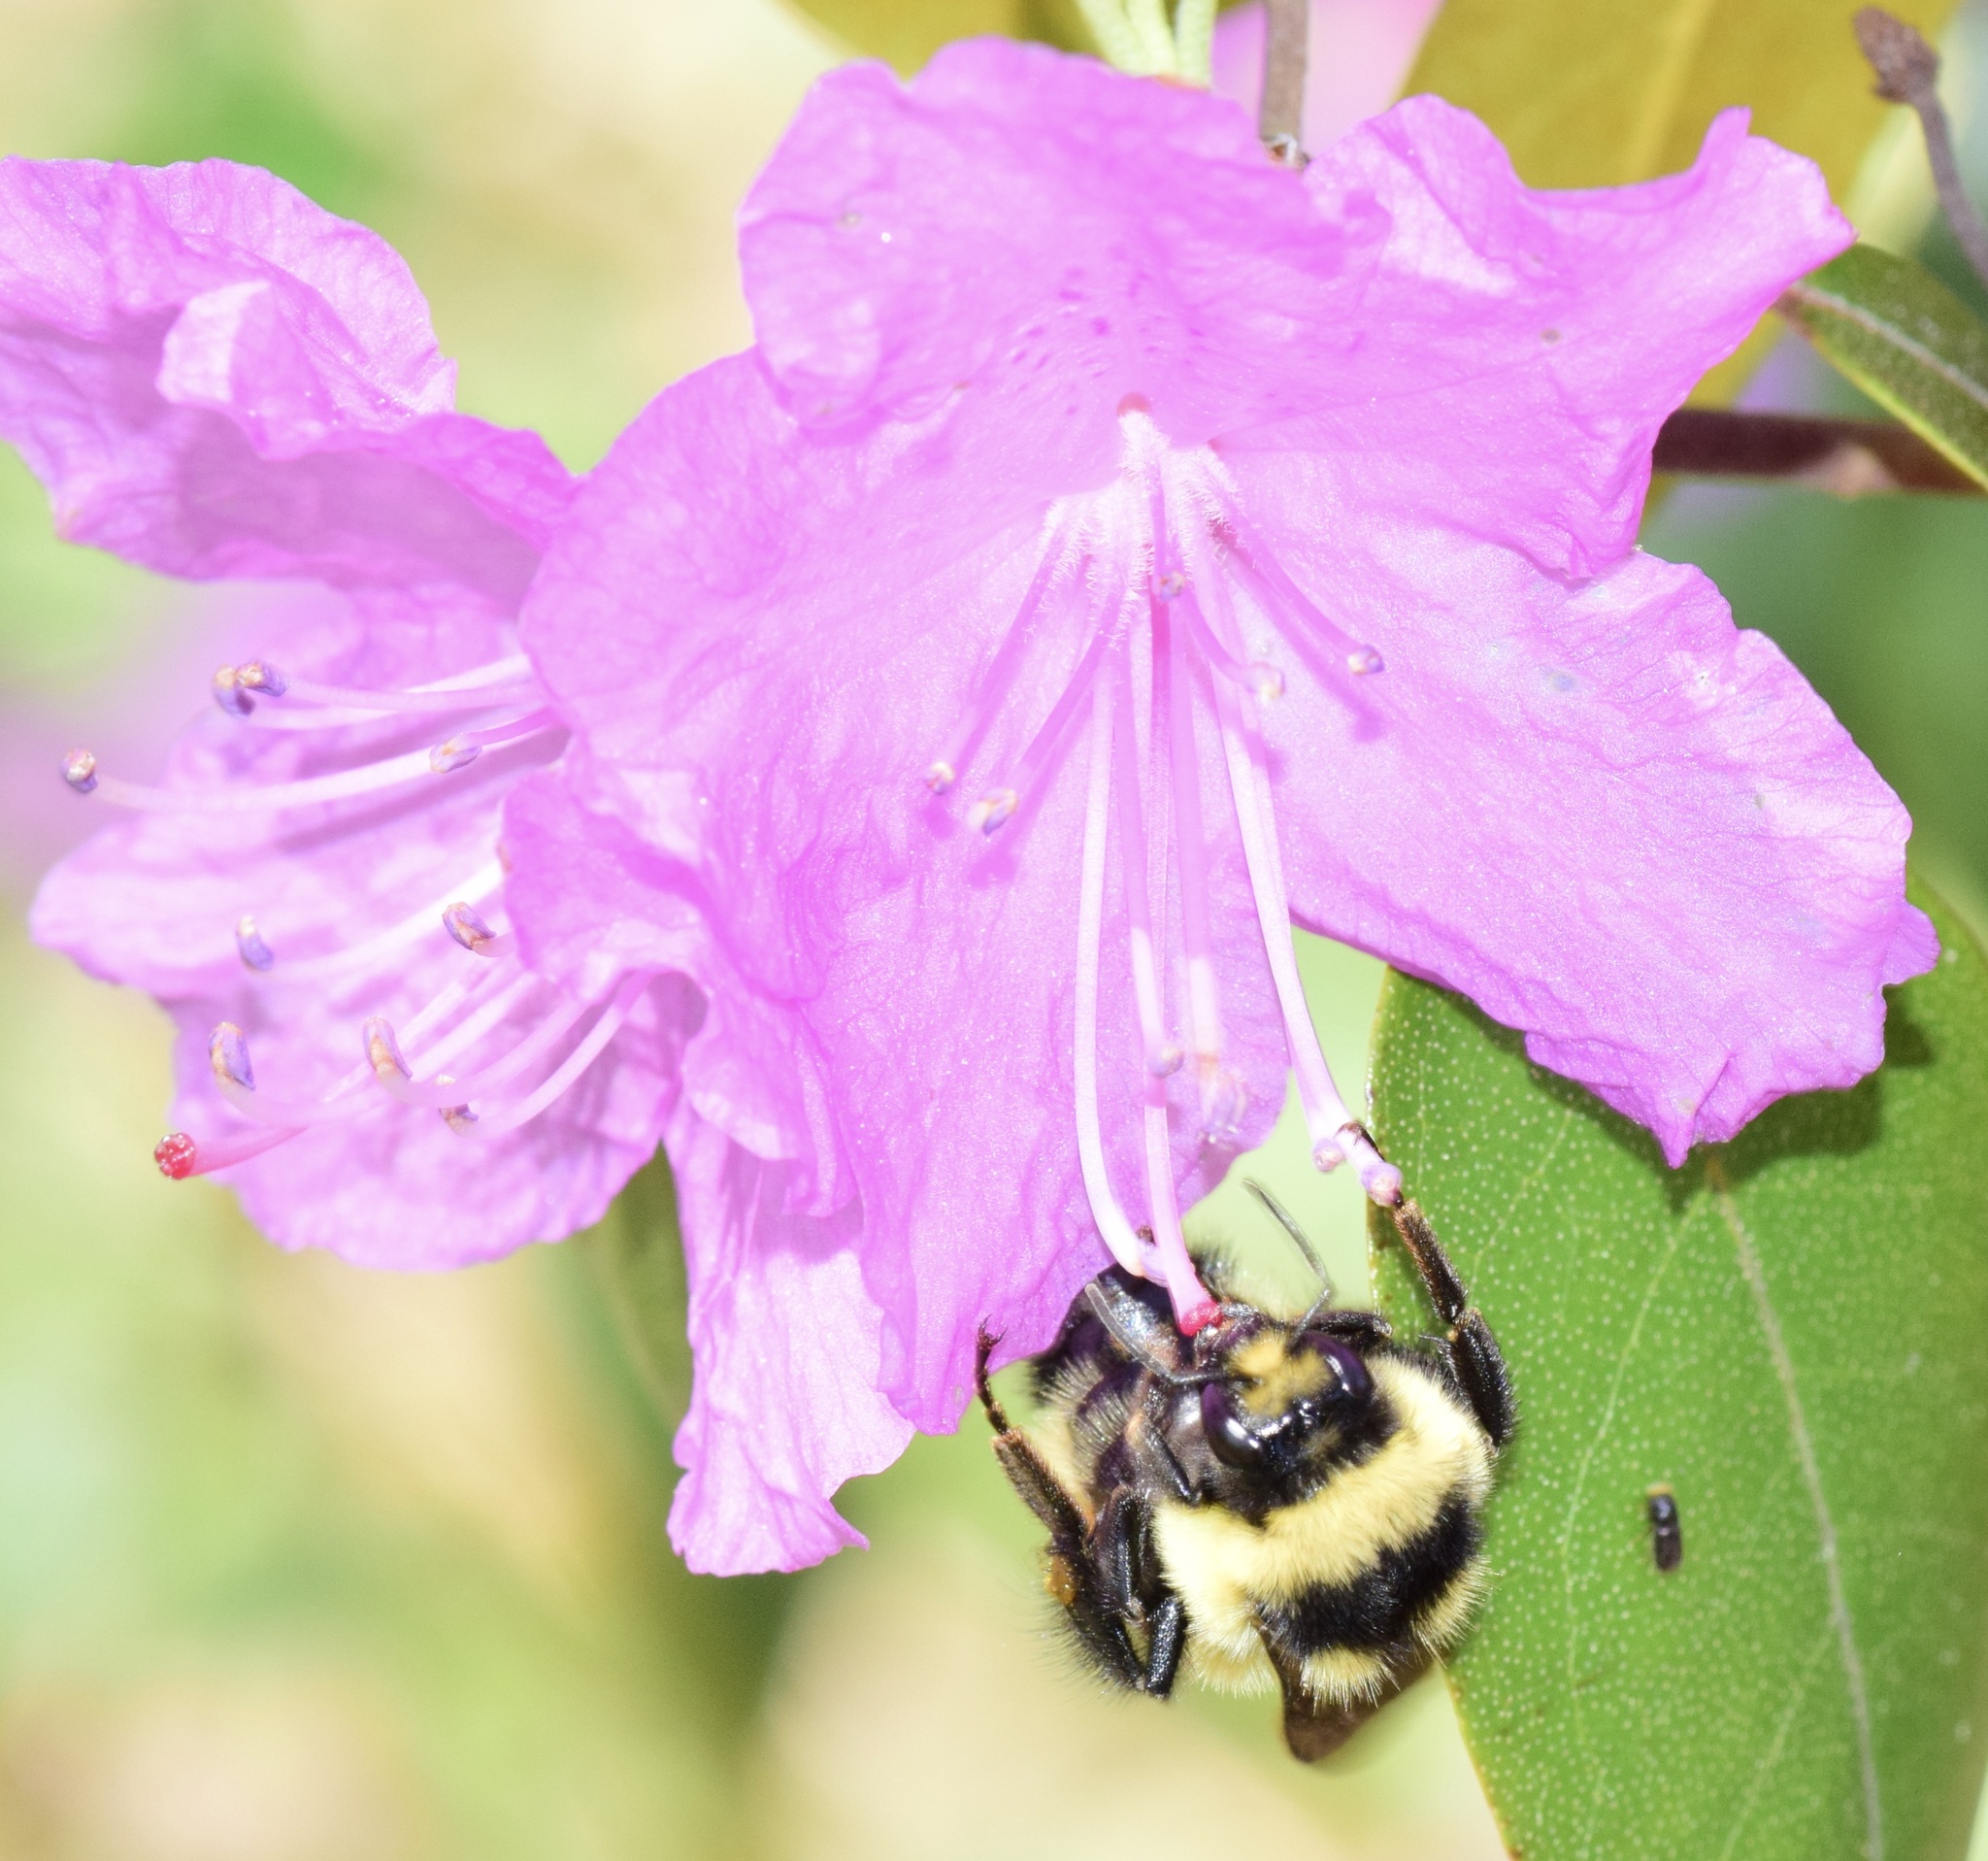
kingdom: Animalia
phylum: Arthropoda
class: Insecta
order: Hymenoptera
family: Apidae
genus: Bombus
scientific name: Bombus ternarius
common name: Tri-colored bumble bee
